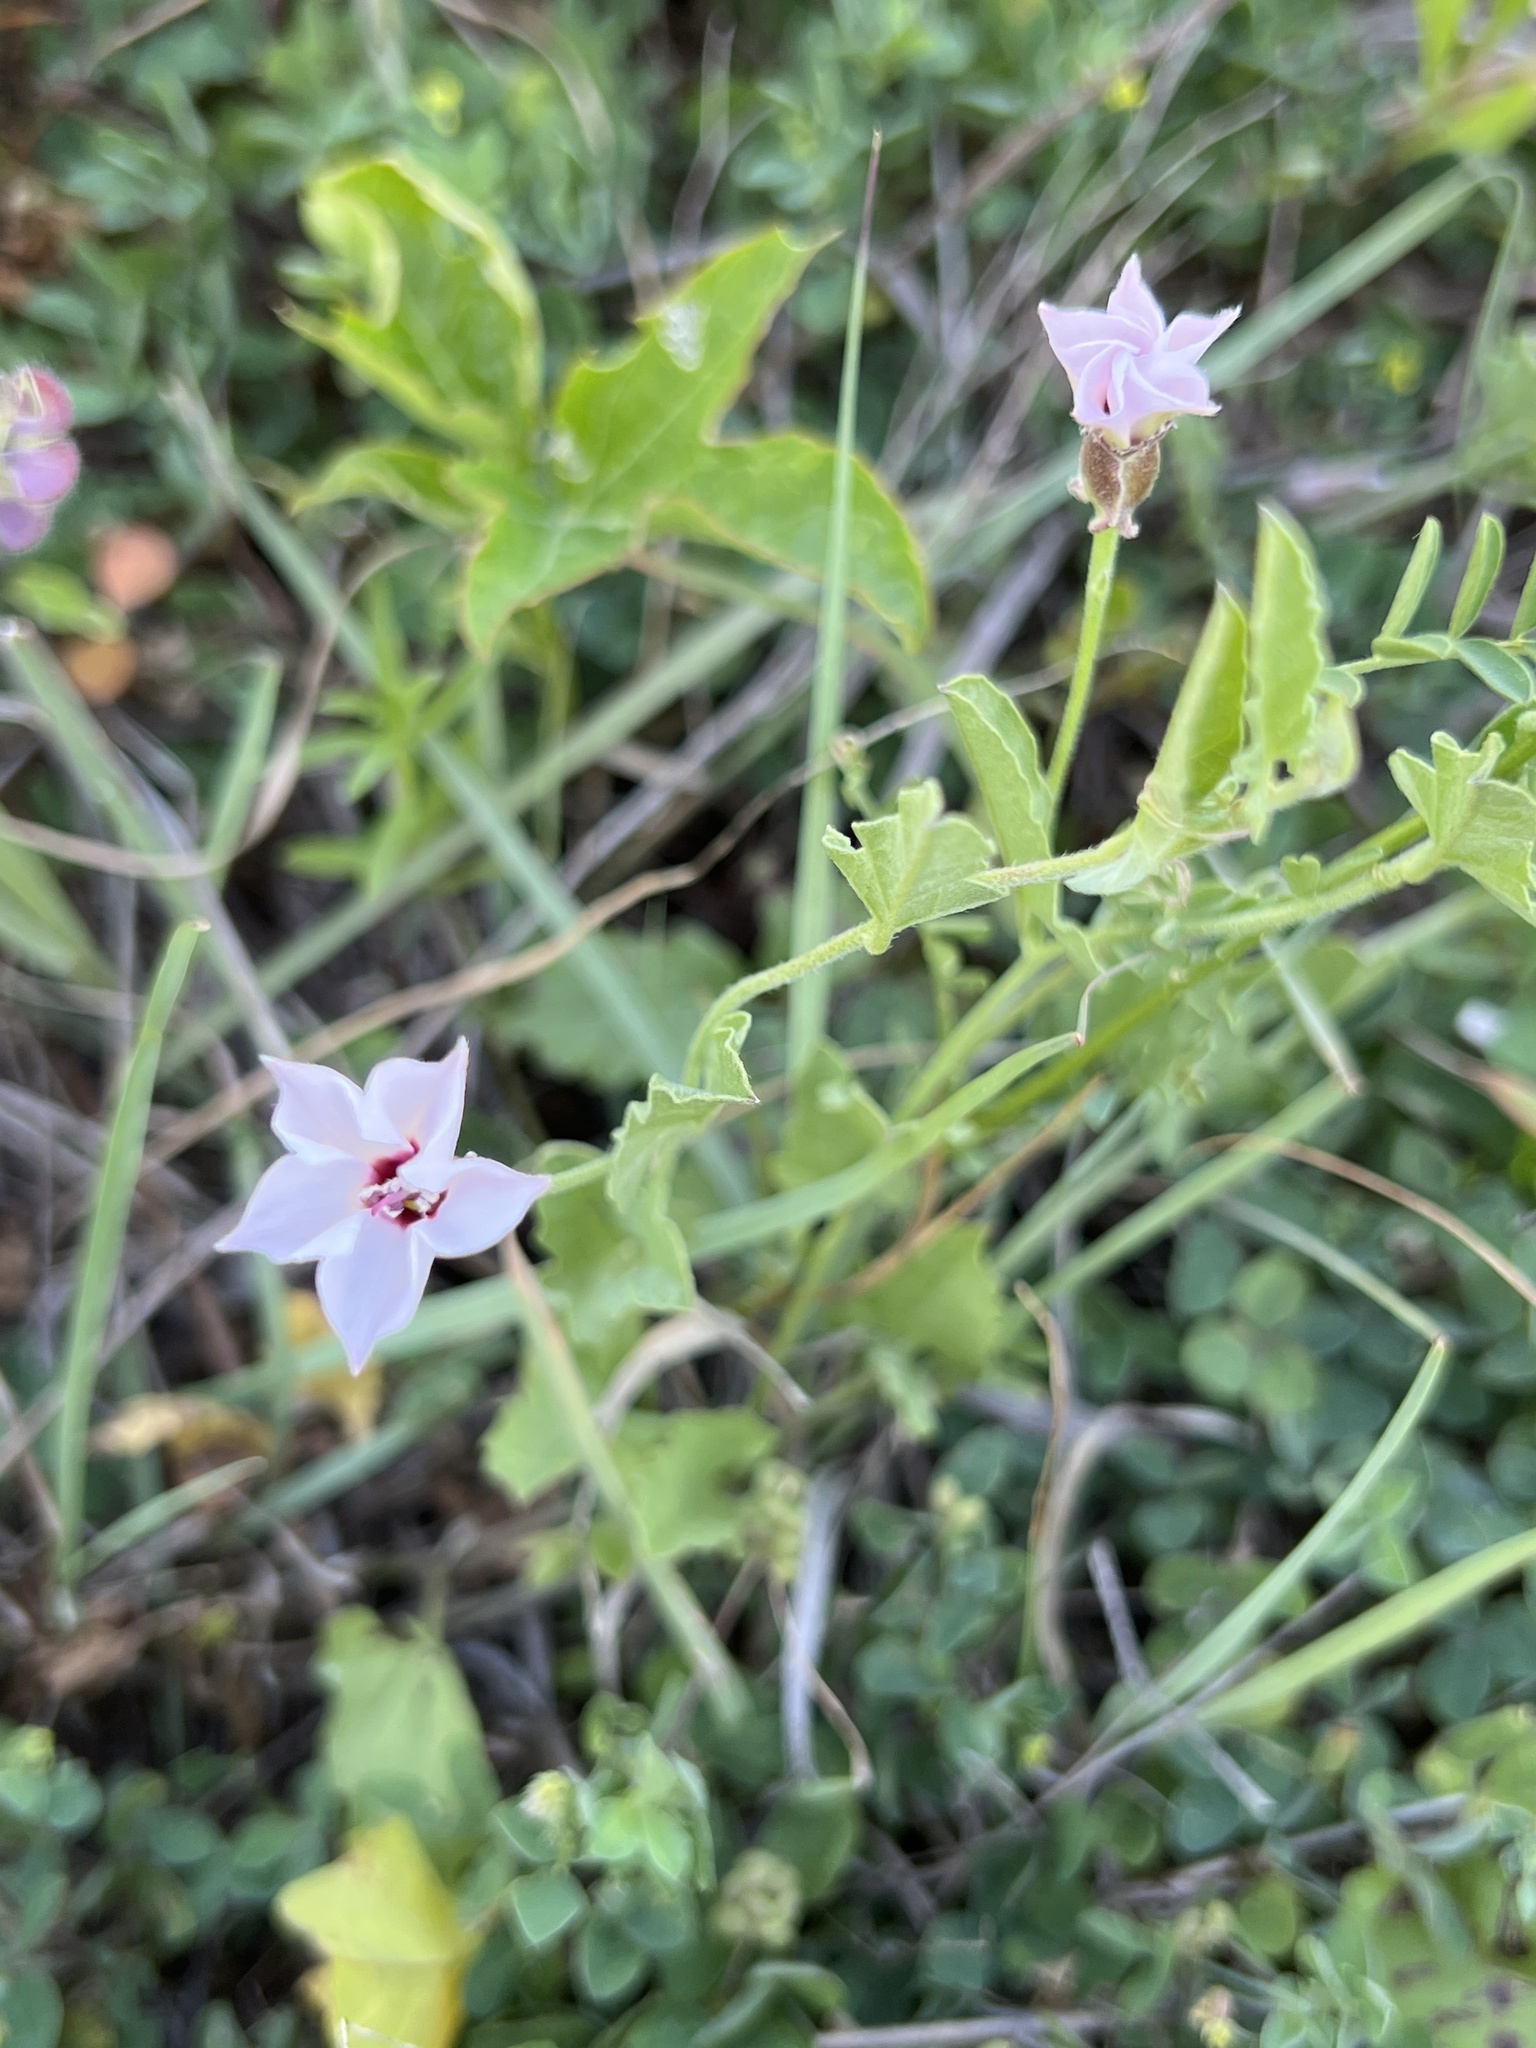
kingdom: Plantae
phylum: Tracheophyta
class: Magnoliopsida
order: Solanales
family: Convolvulaceae
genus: Convolvulus
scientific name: Convolvulus equitans
